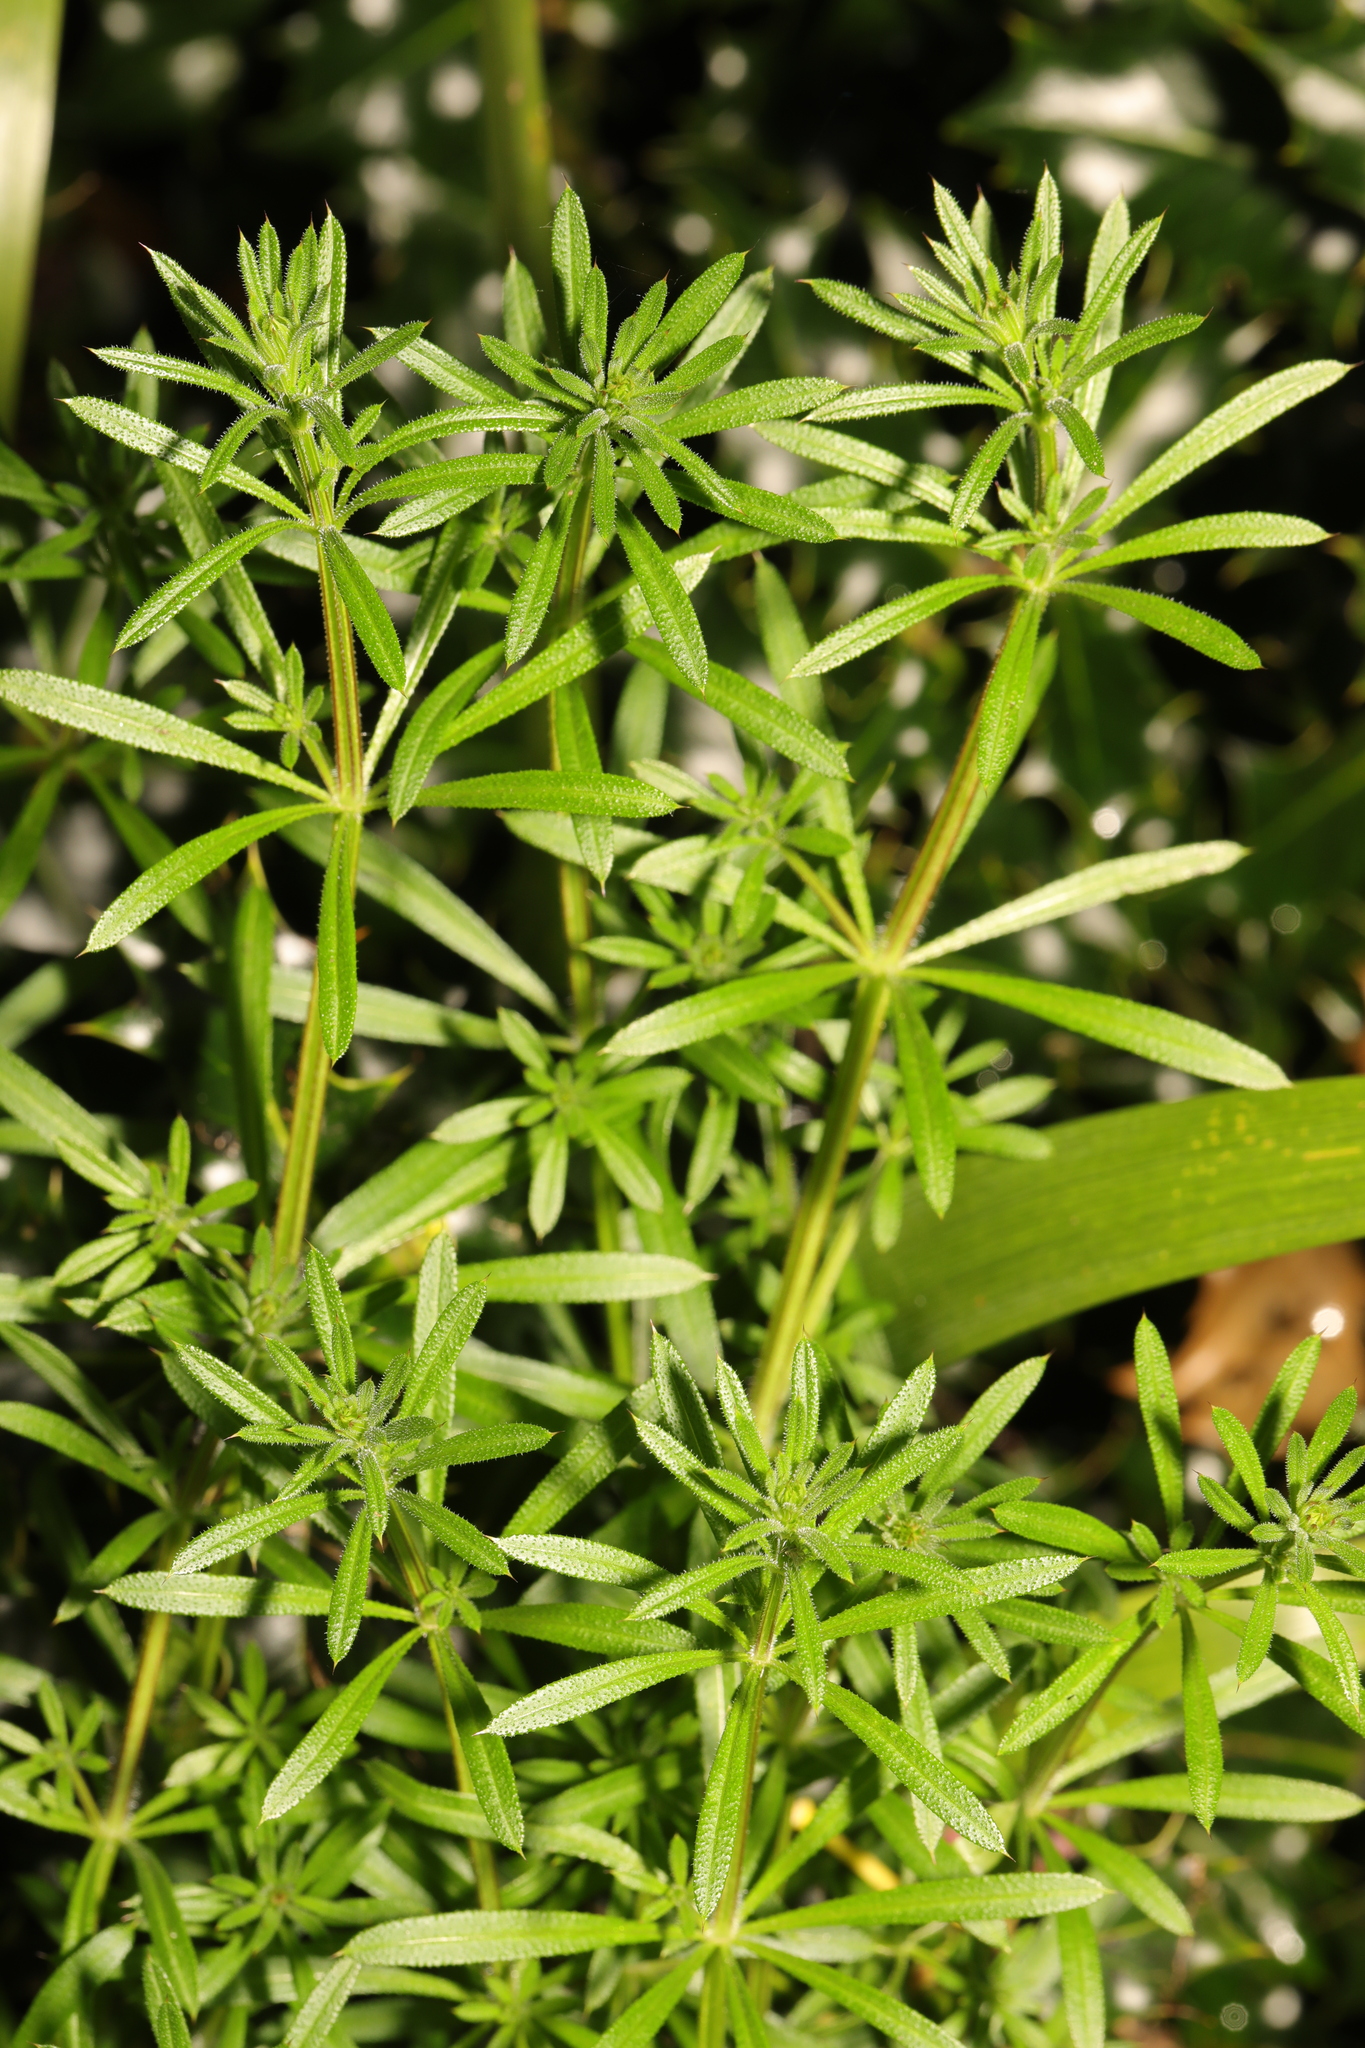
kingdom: Plantae
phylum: Tracheophyta
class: Magnoliopsida
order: Gentianales
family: Rubiaceae
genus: Galium
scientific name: Galium aparine
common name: Cleavers
